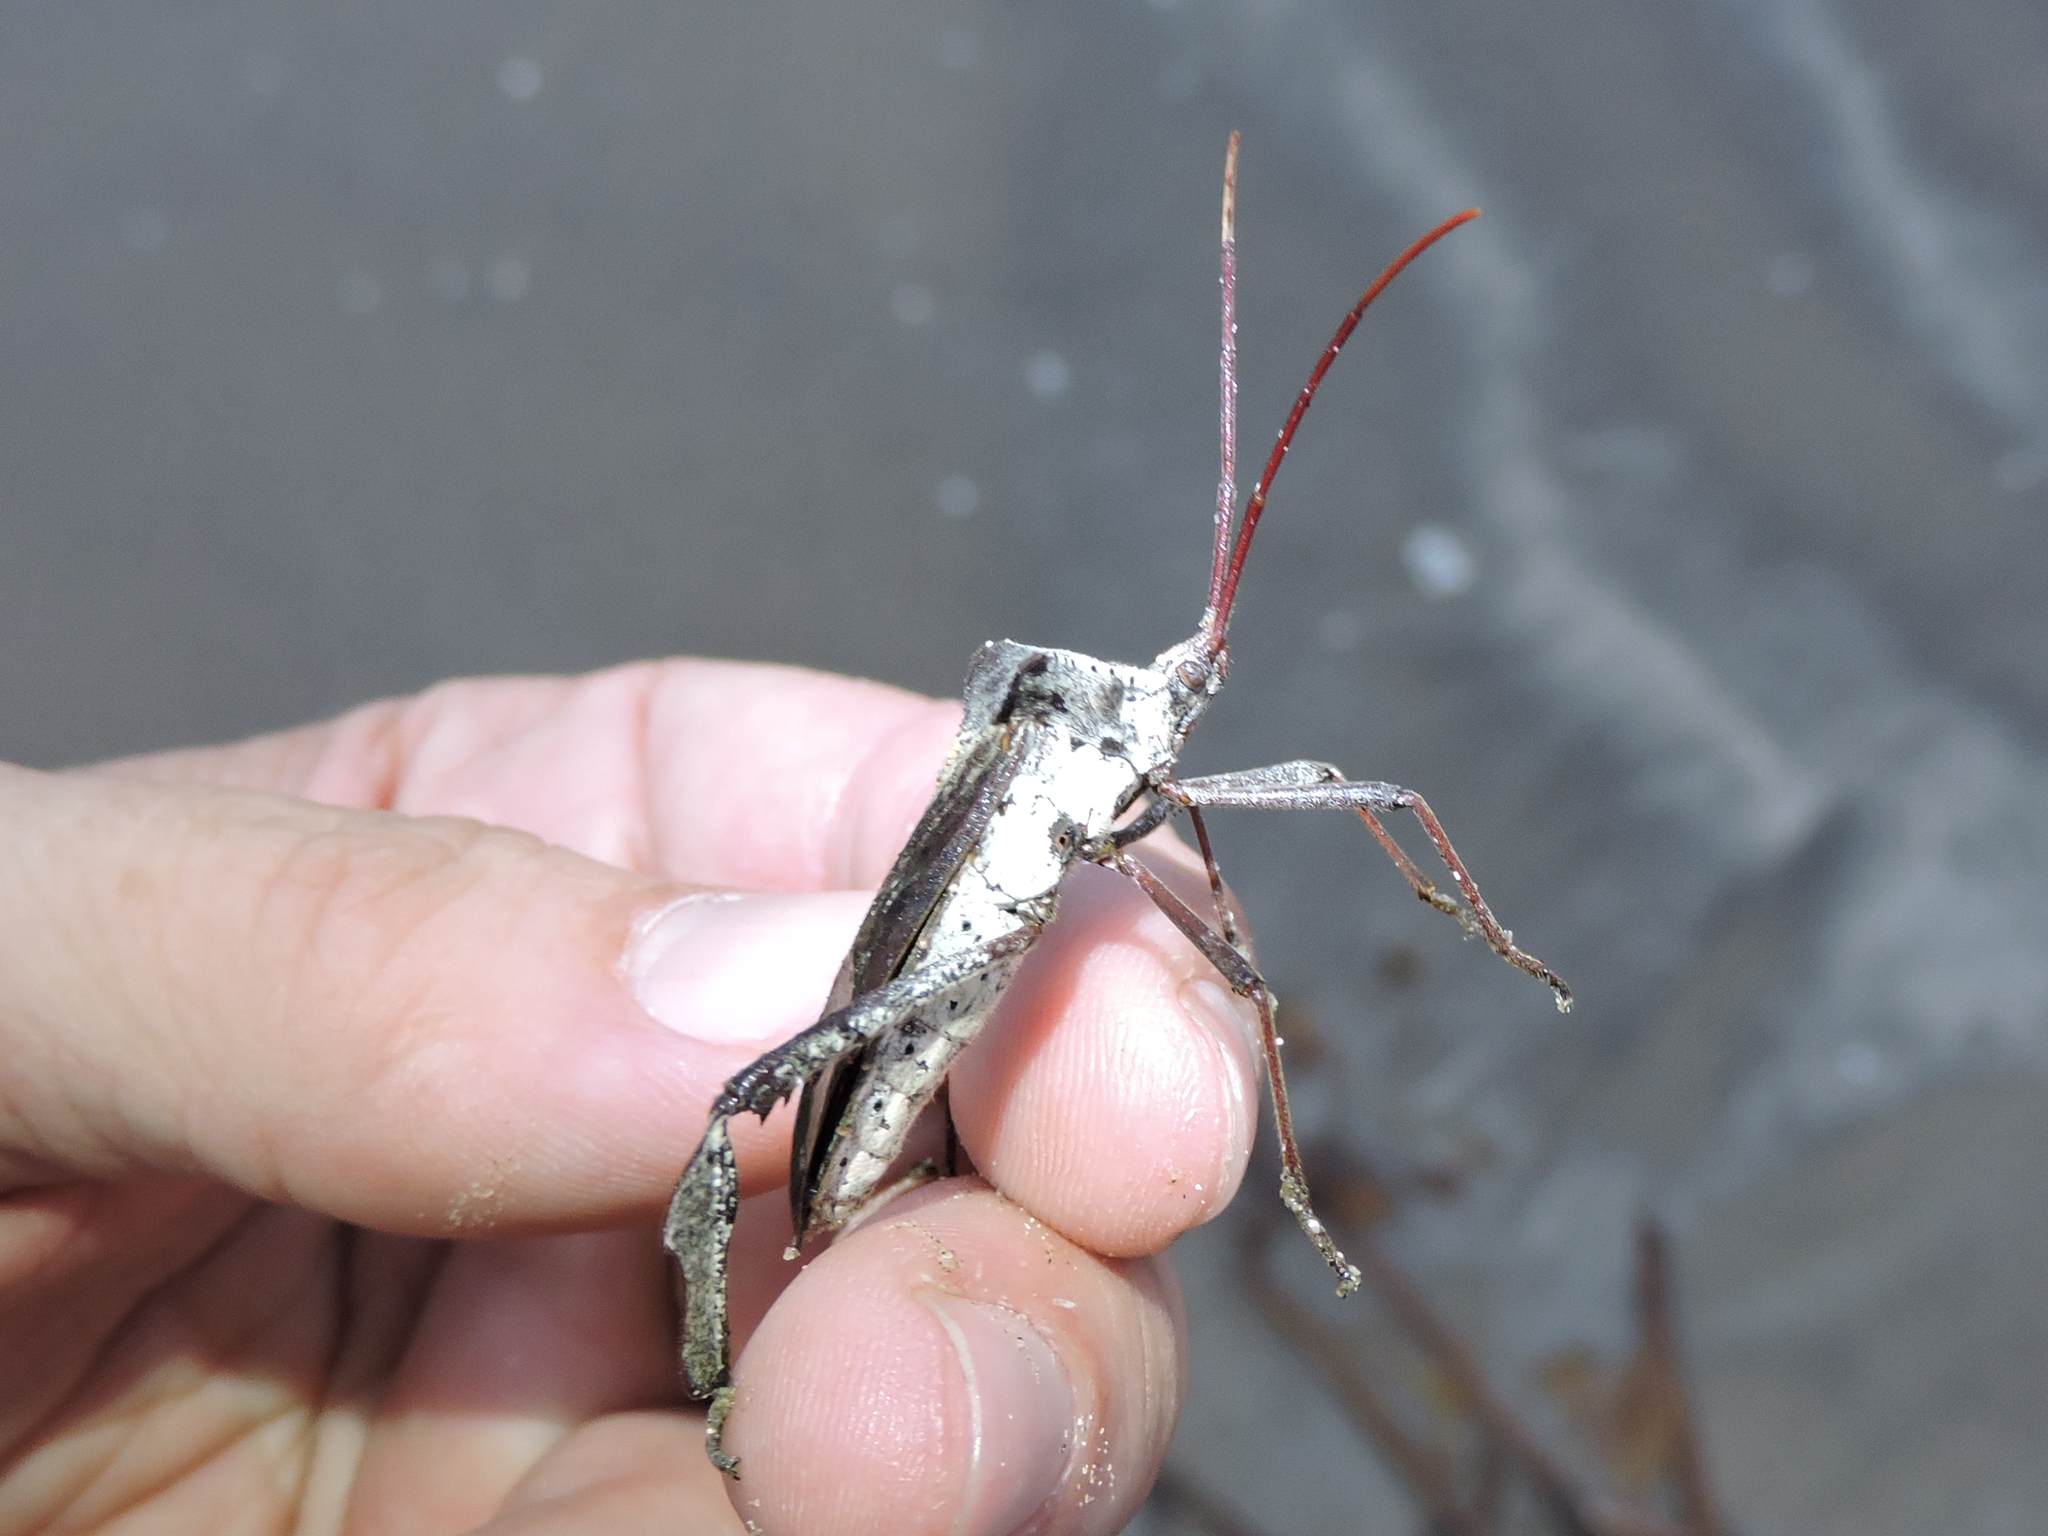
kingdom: Animalia
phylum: Arthropoda
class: Insecta
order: Hemiptera
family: Coreidae
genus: Acanthocephala
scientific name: Acanthocephala declivis
